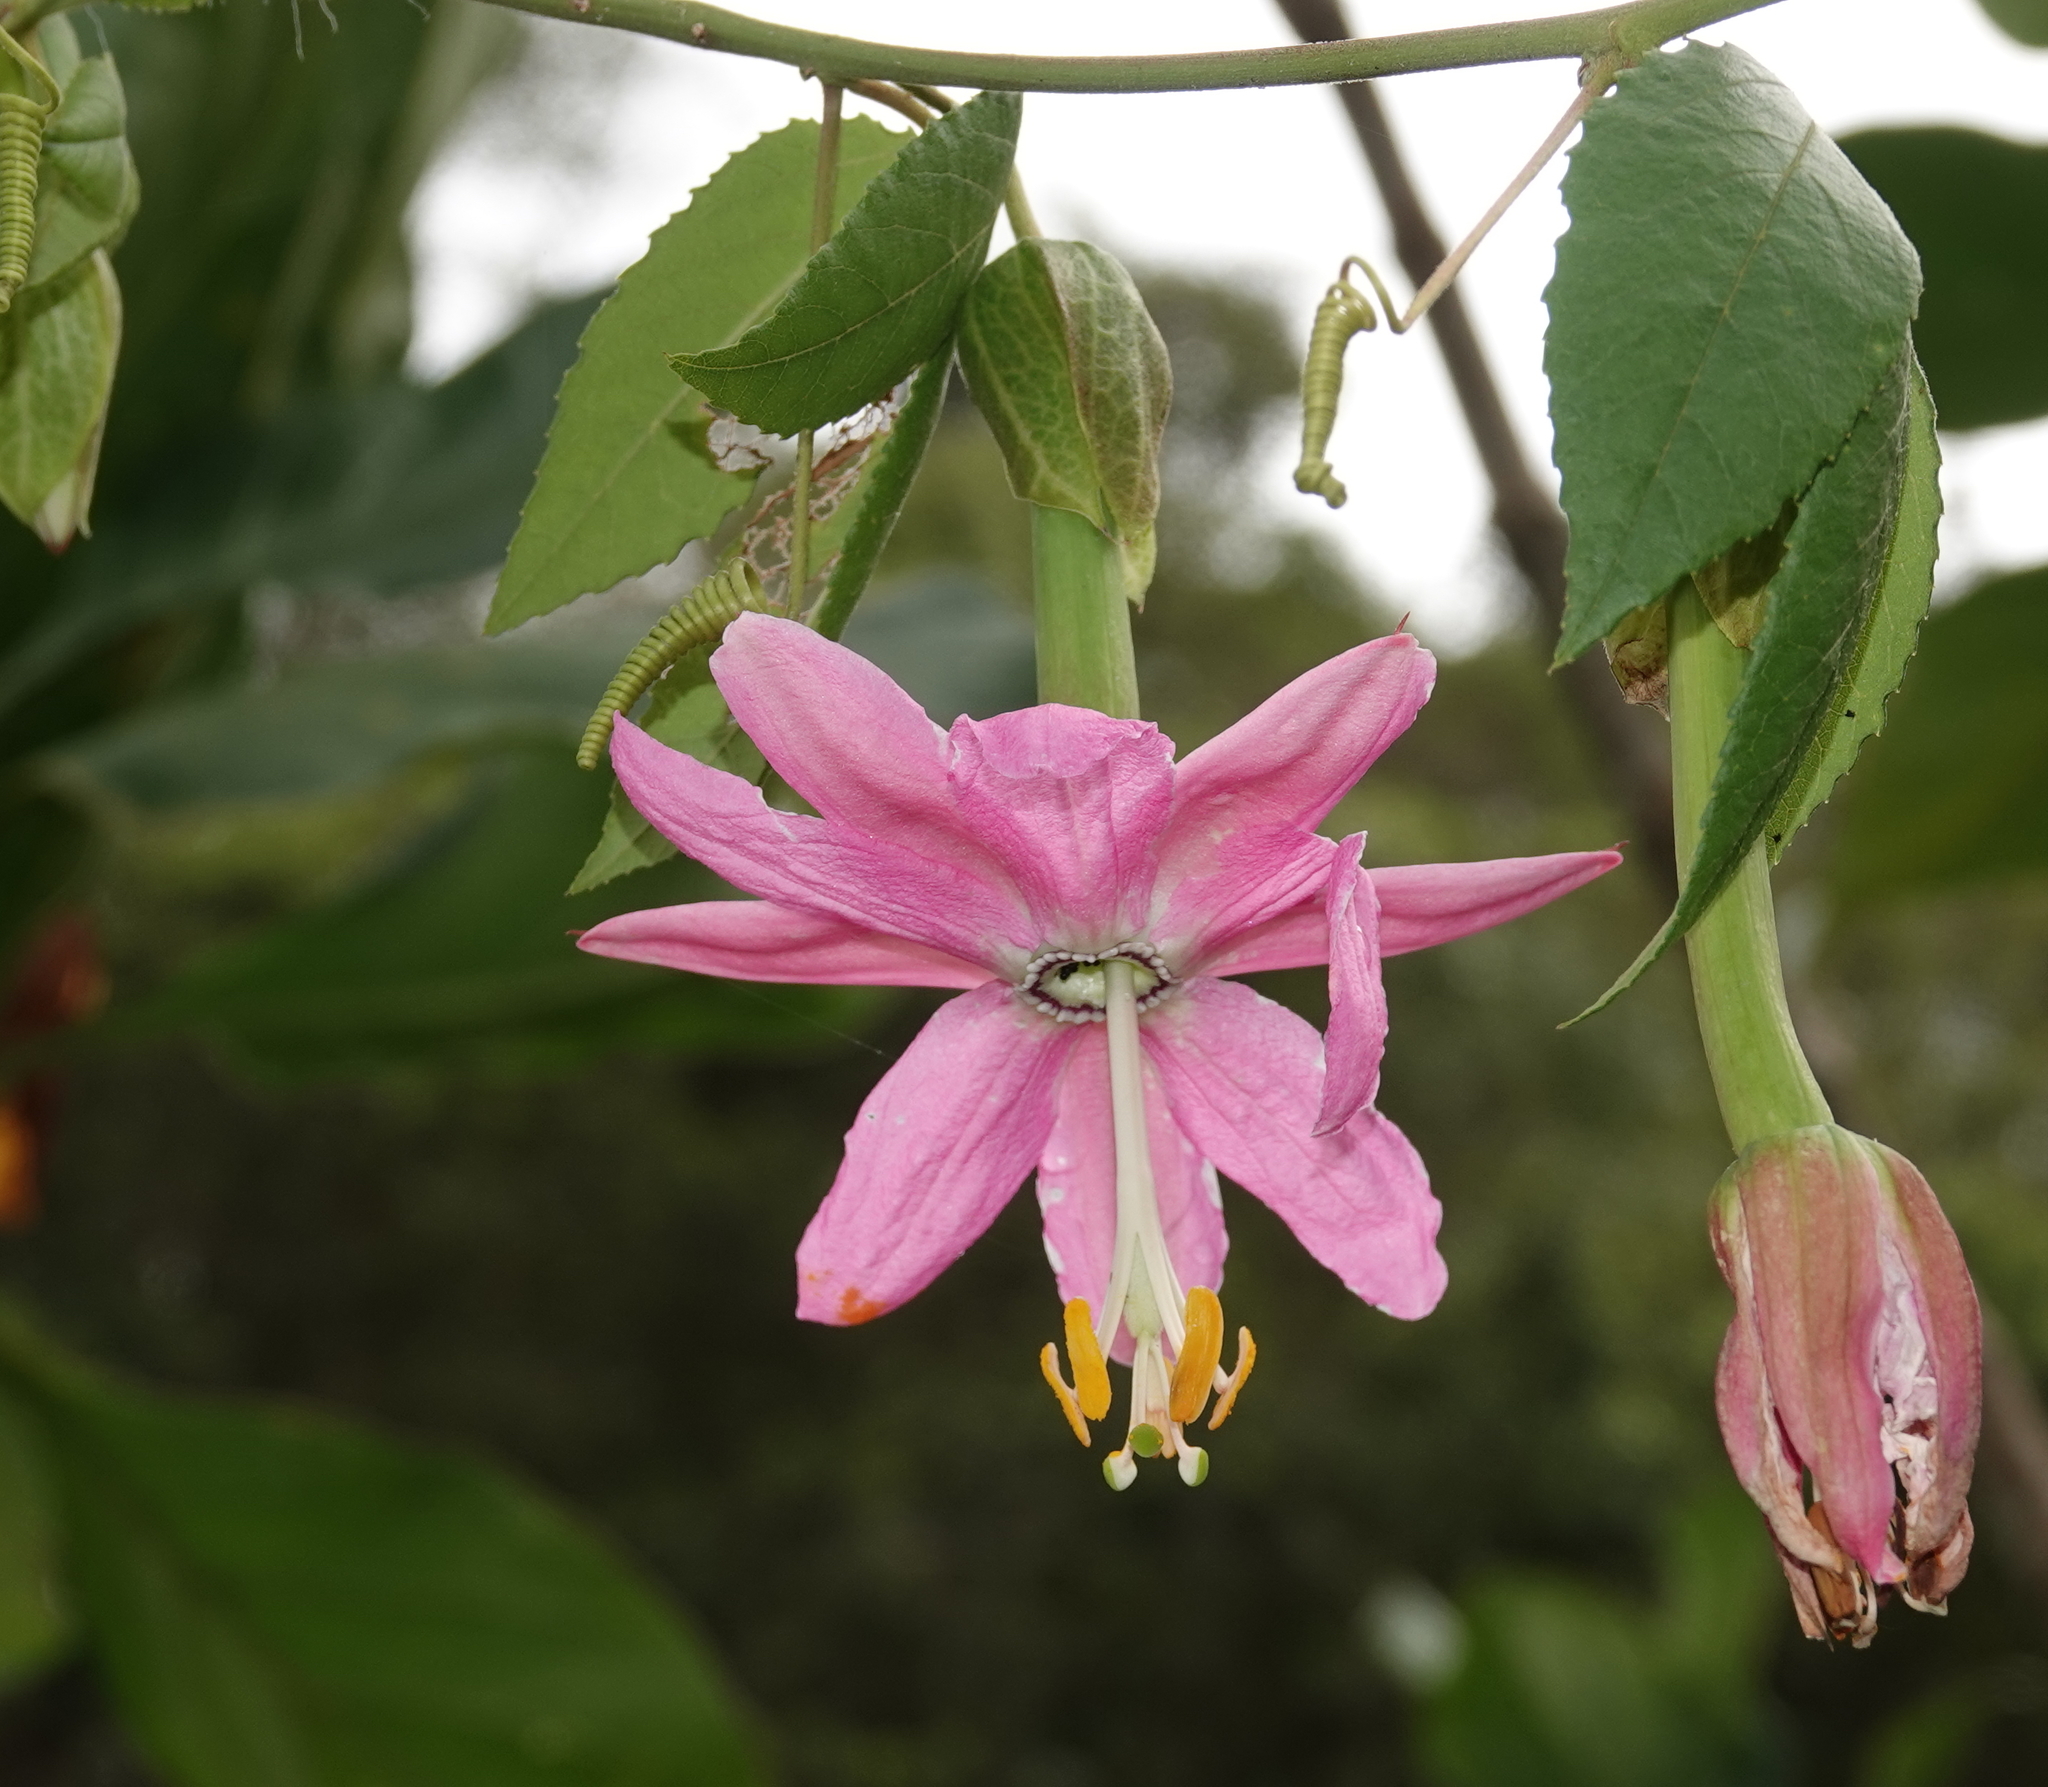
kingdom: Plantae
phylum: Tracheophyta
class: Magnoliopsida
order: Malpighiales
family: Passifloraceae
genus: Passiflora
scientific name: Passiflora tarminiana
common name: Banana poka
